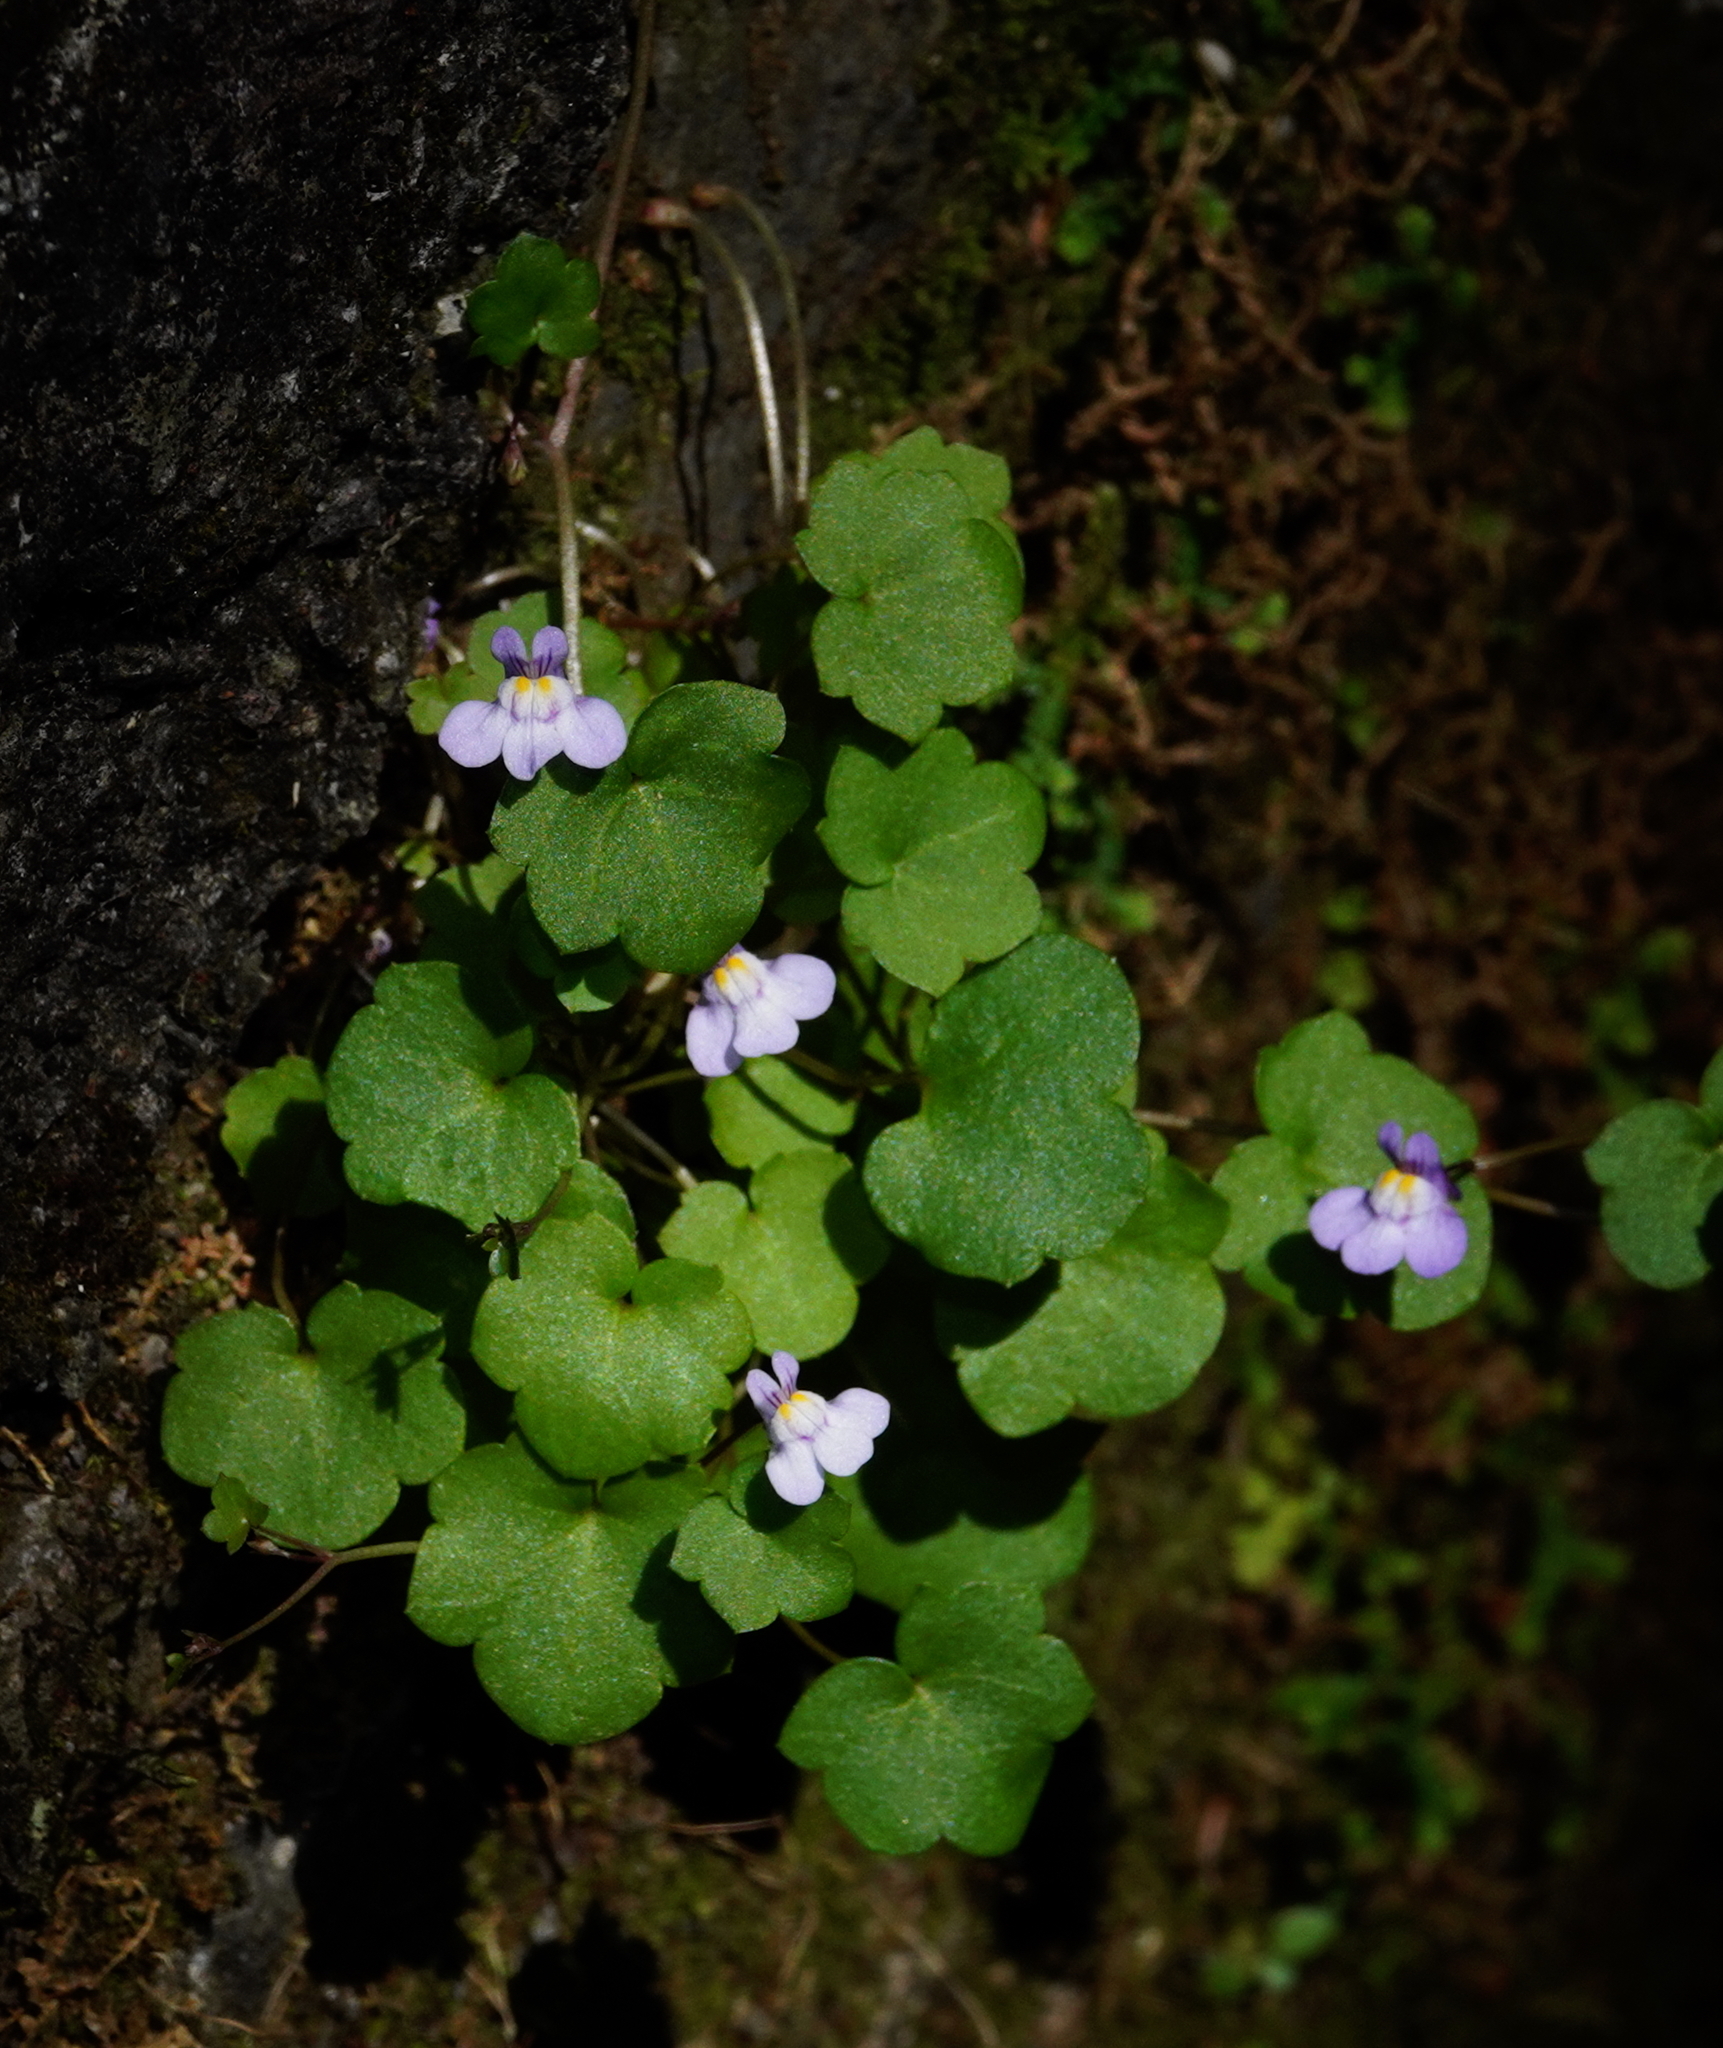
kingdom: Plantae
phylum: Tracheophyta
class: Magnoliopsida
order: Lamiales
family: Plantaginaceae
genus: Cymbalaria
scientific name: Cymbalaria muralis
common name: Ivy-leaved toadflax
